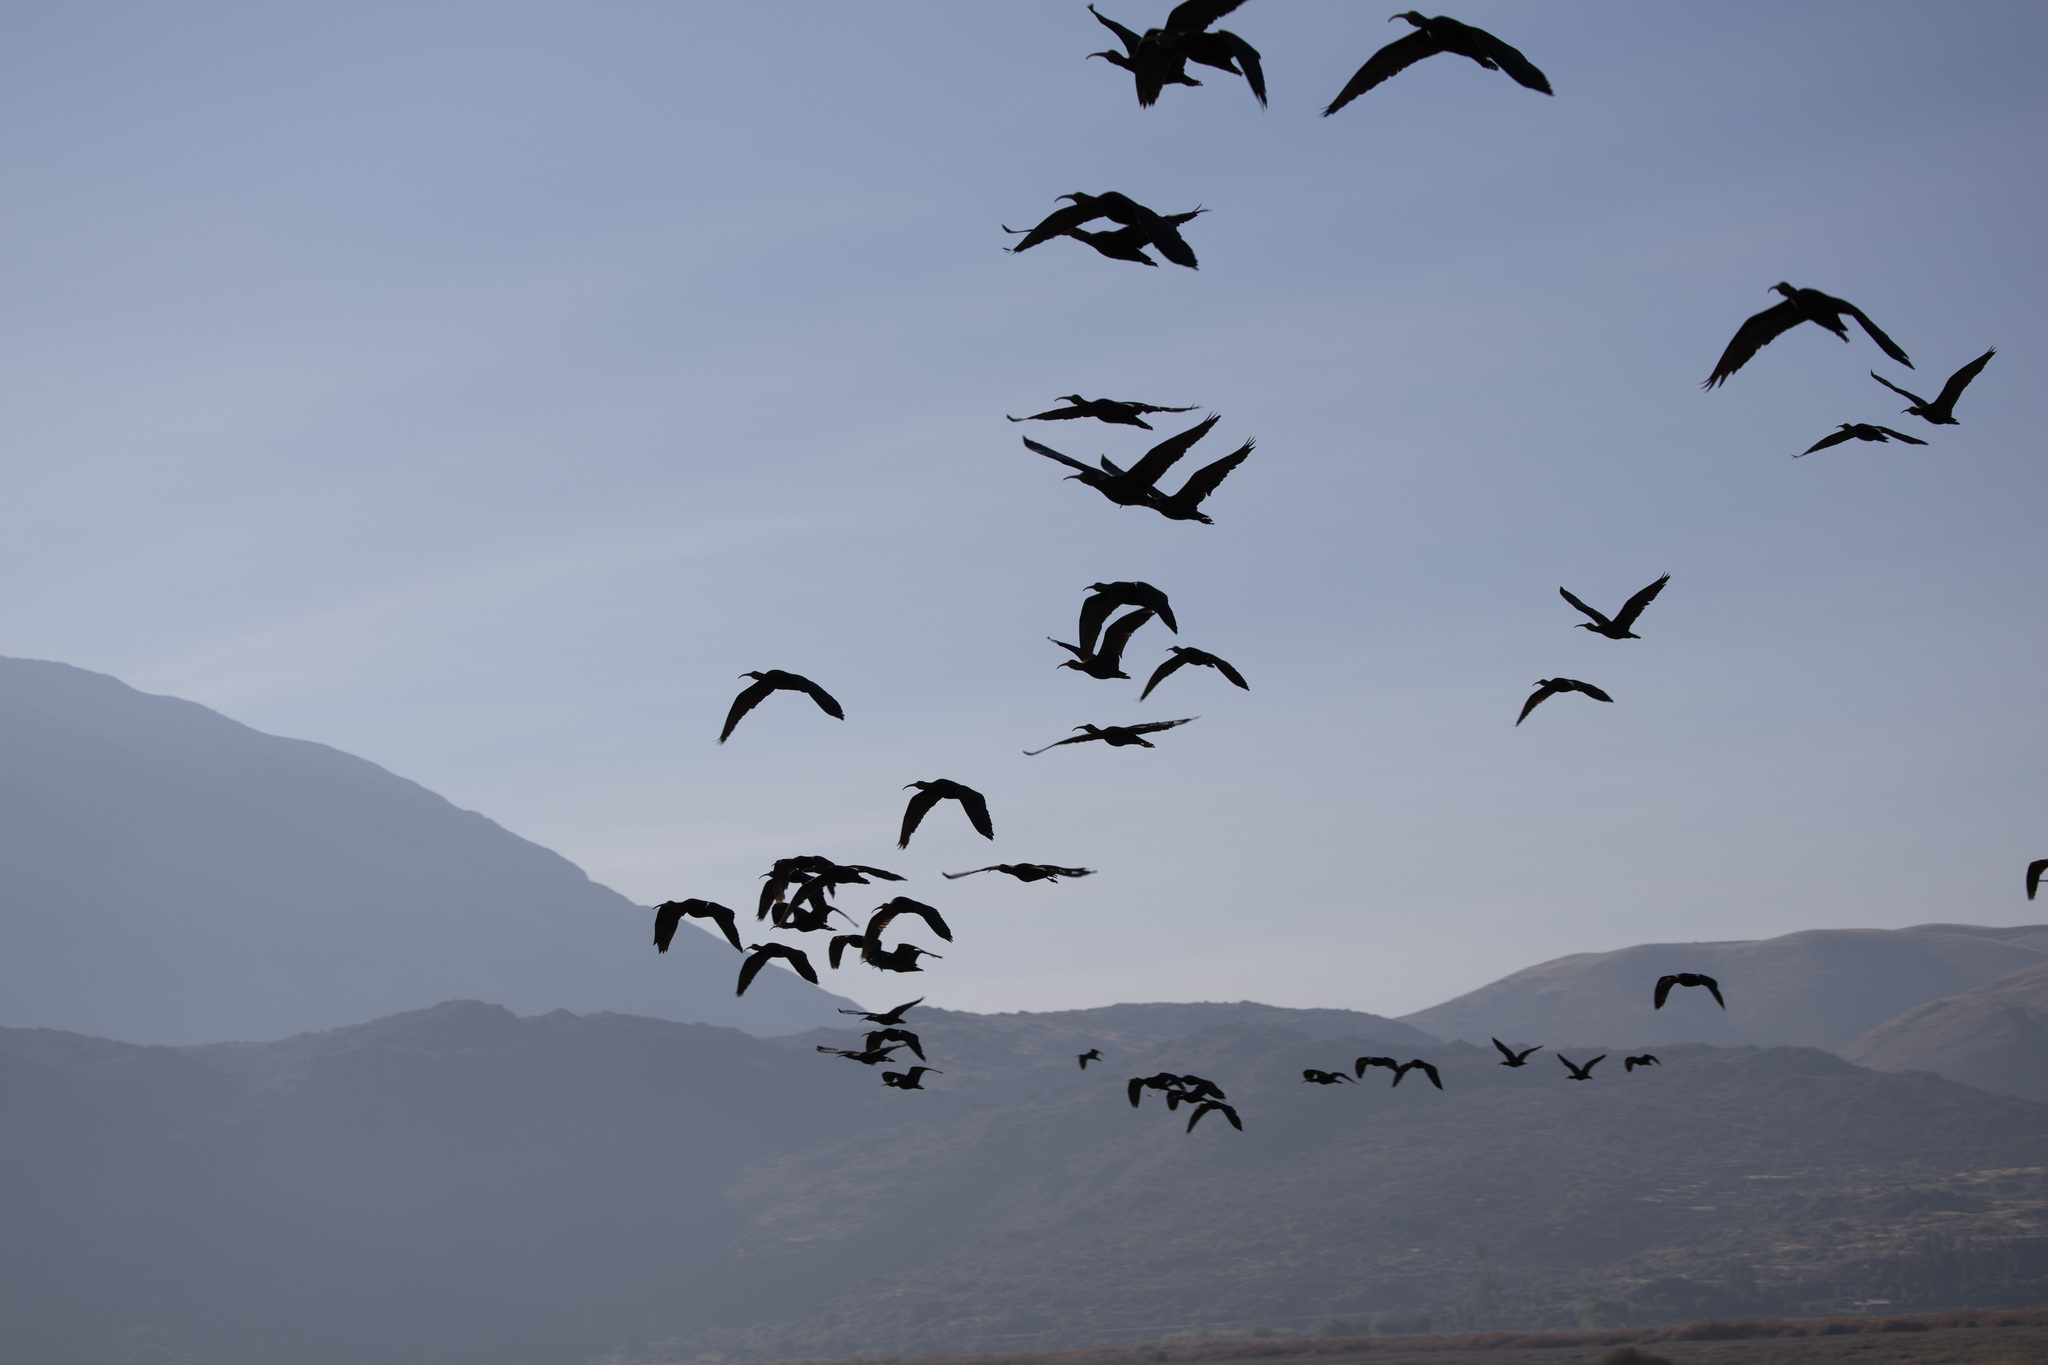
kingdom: Animalia
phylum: Chordata
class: Aves
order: Pelecaniformes
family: Threskiornithidae
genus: Plegadis
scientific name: Plegadis ridgwayi
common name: Puna ibis
